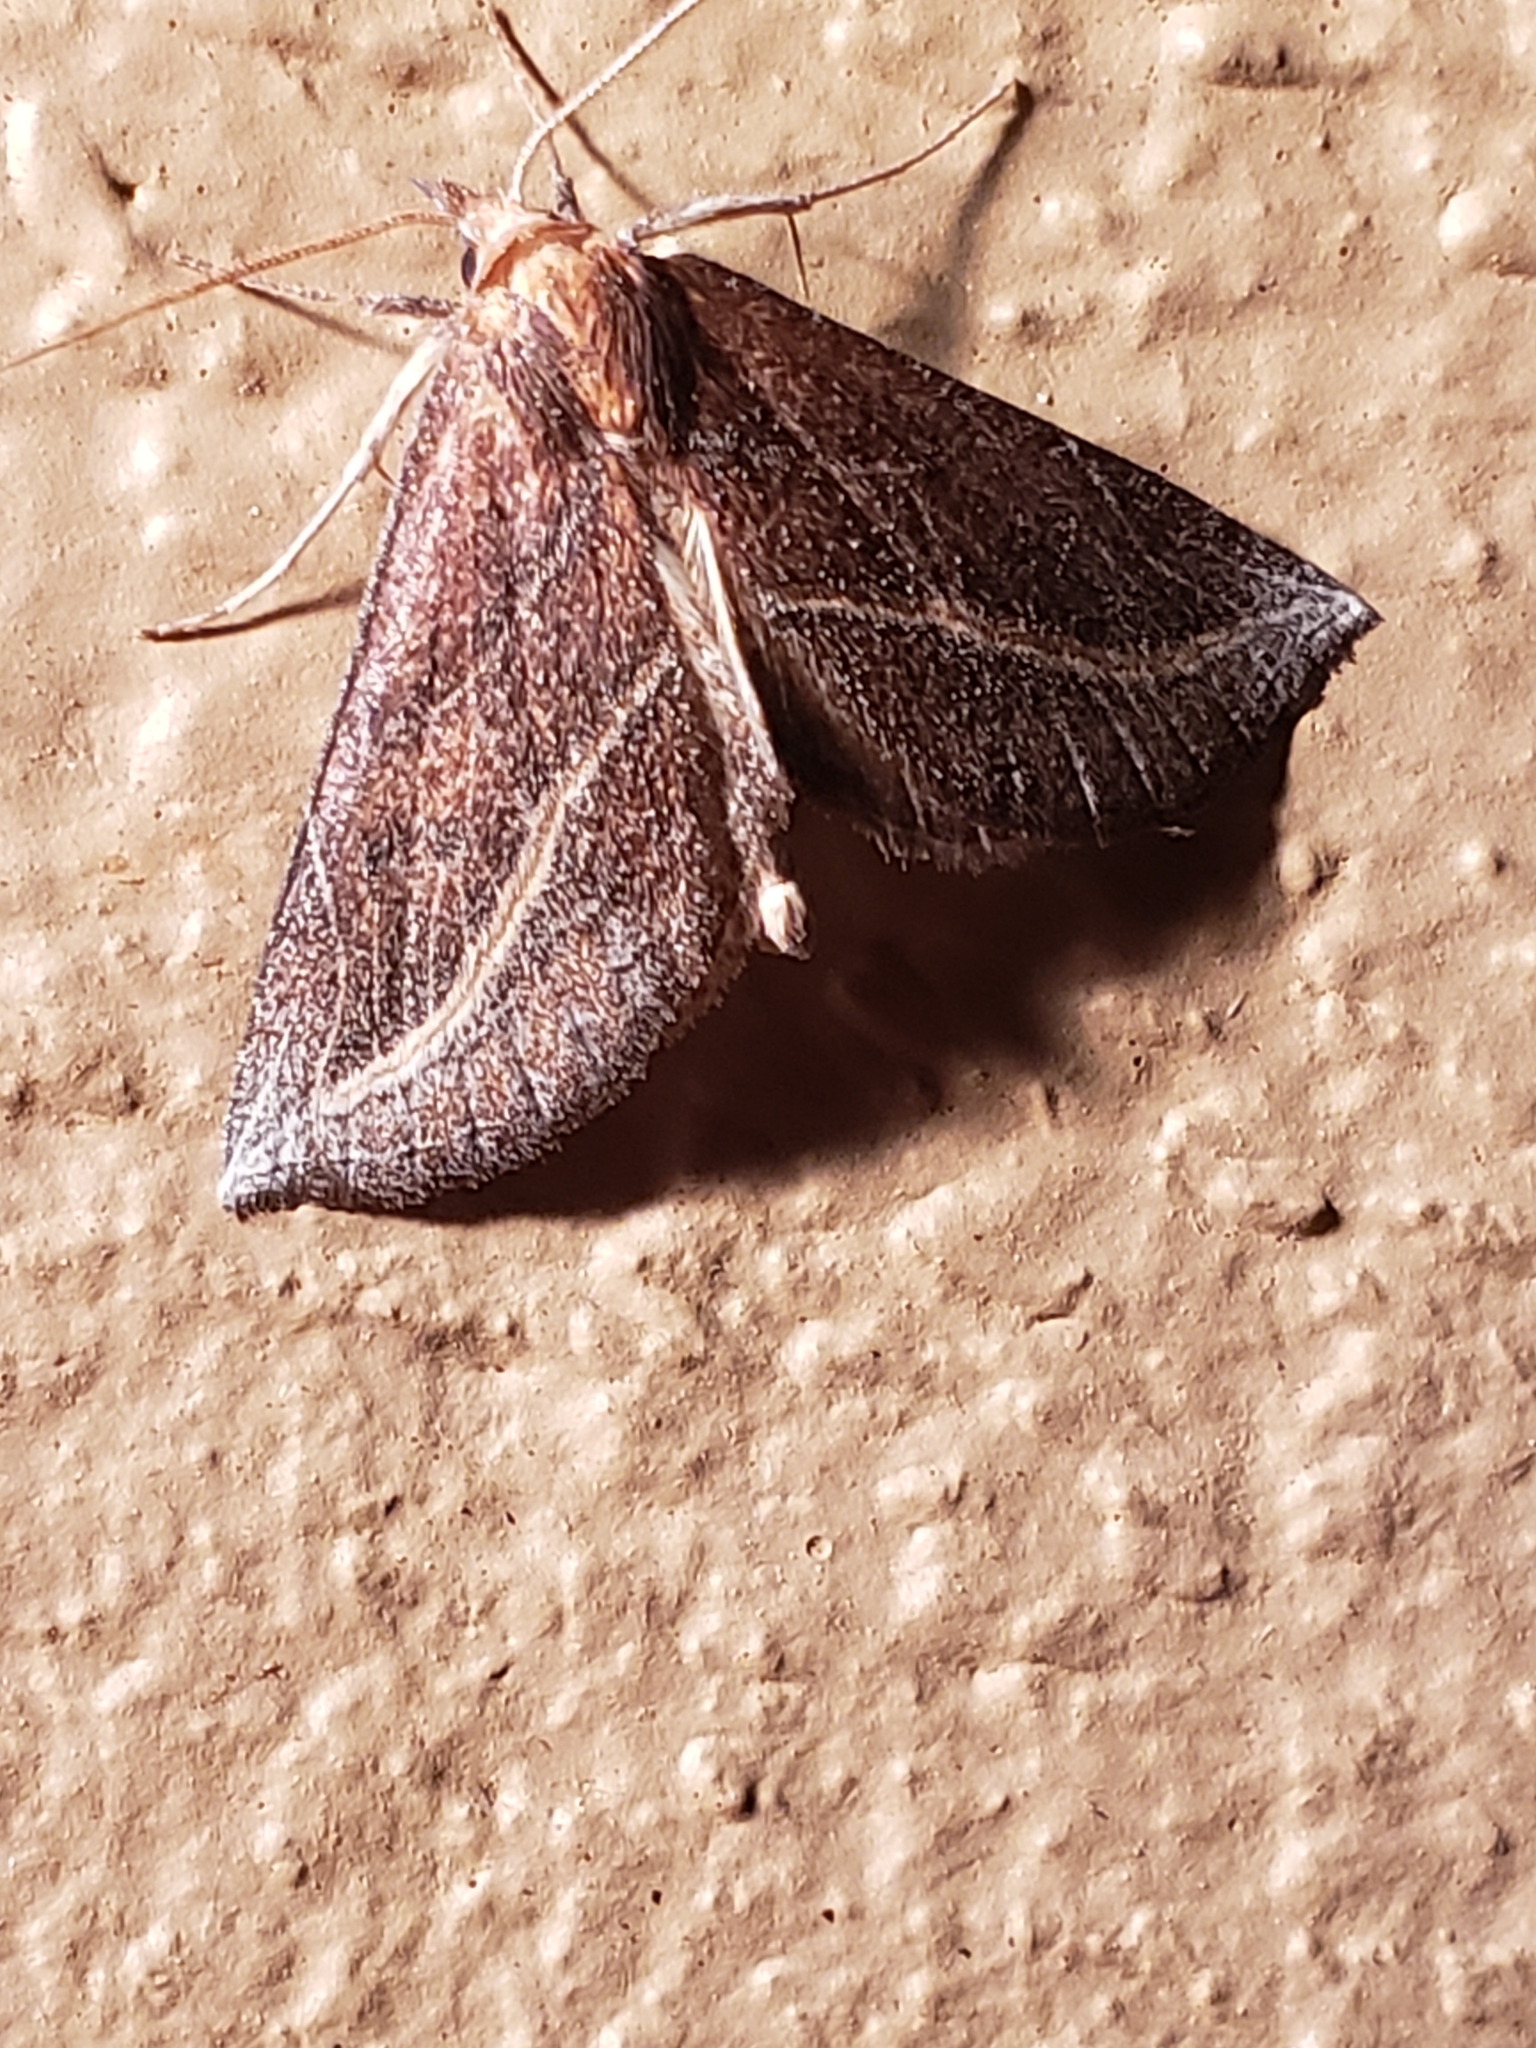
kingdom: Animalia
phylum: Arthropoda
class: Insecta
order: Lepidoptera
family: Erebidae
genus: Phyprosopus
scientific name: Phyprosopus callitrichoides
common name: Curved-lined owlet
